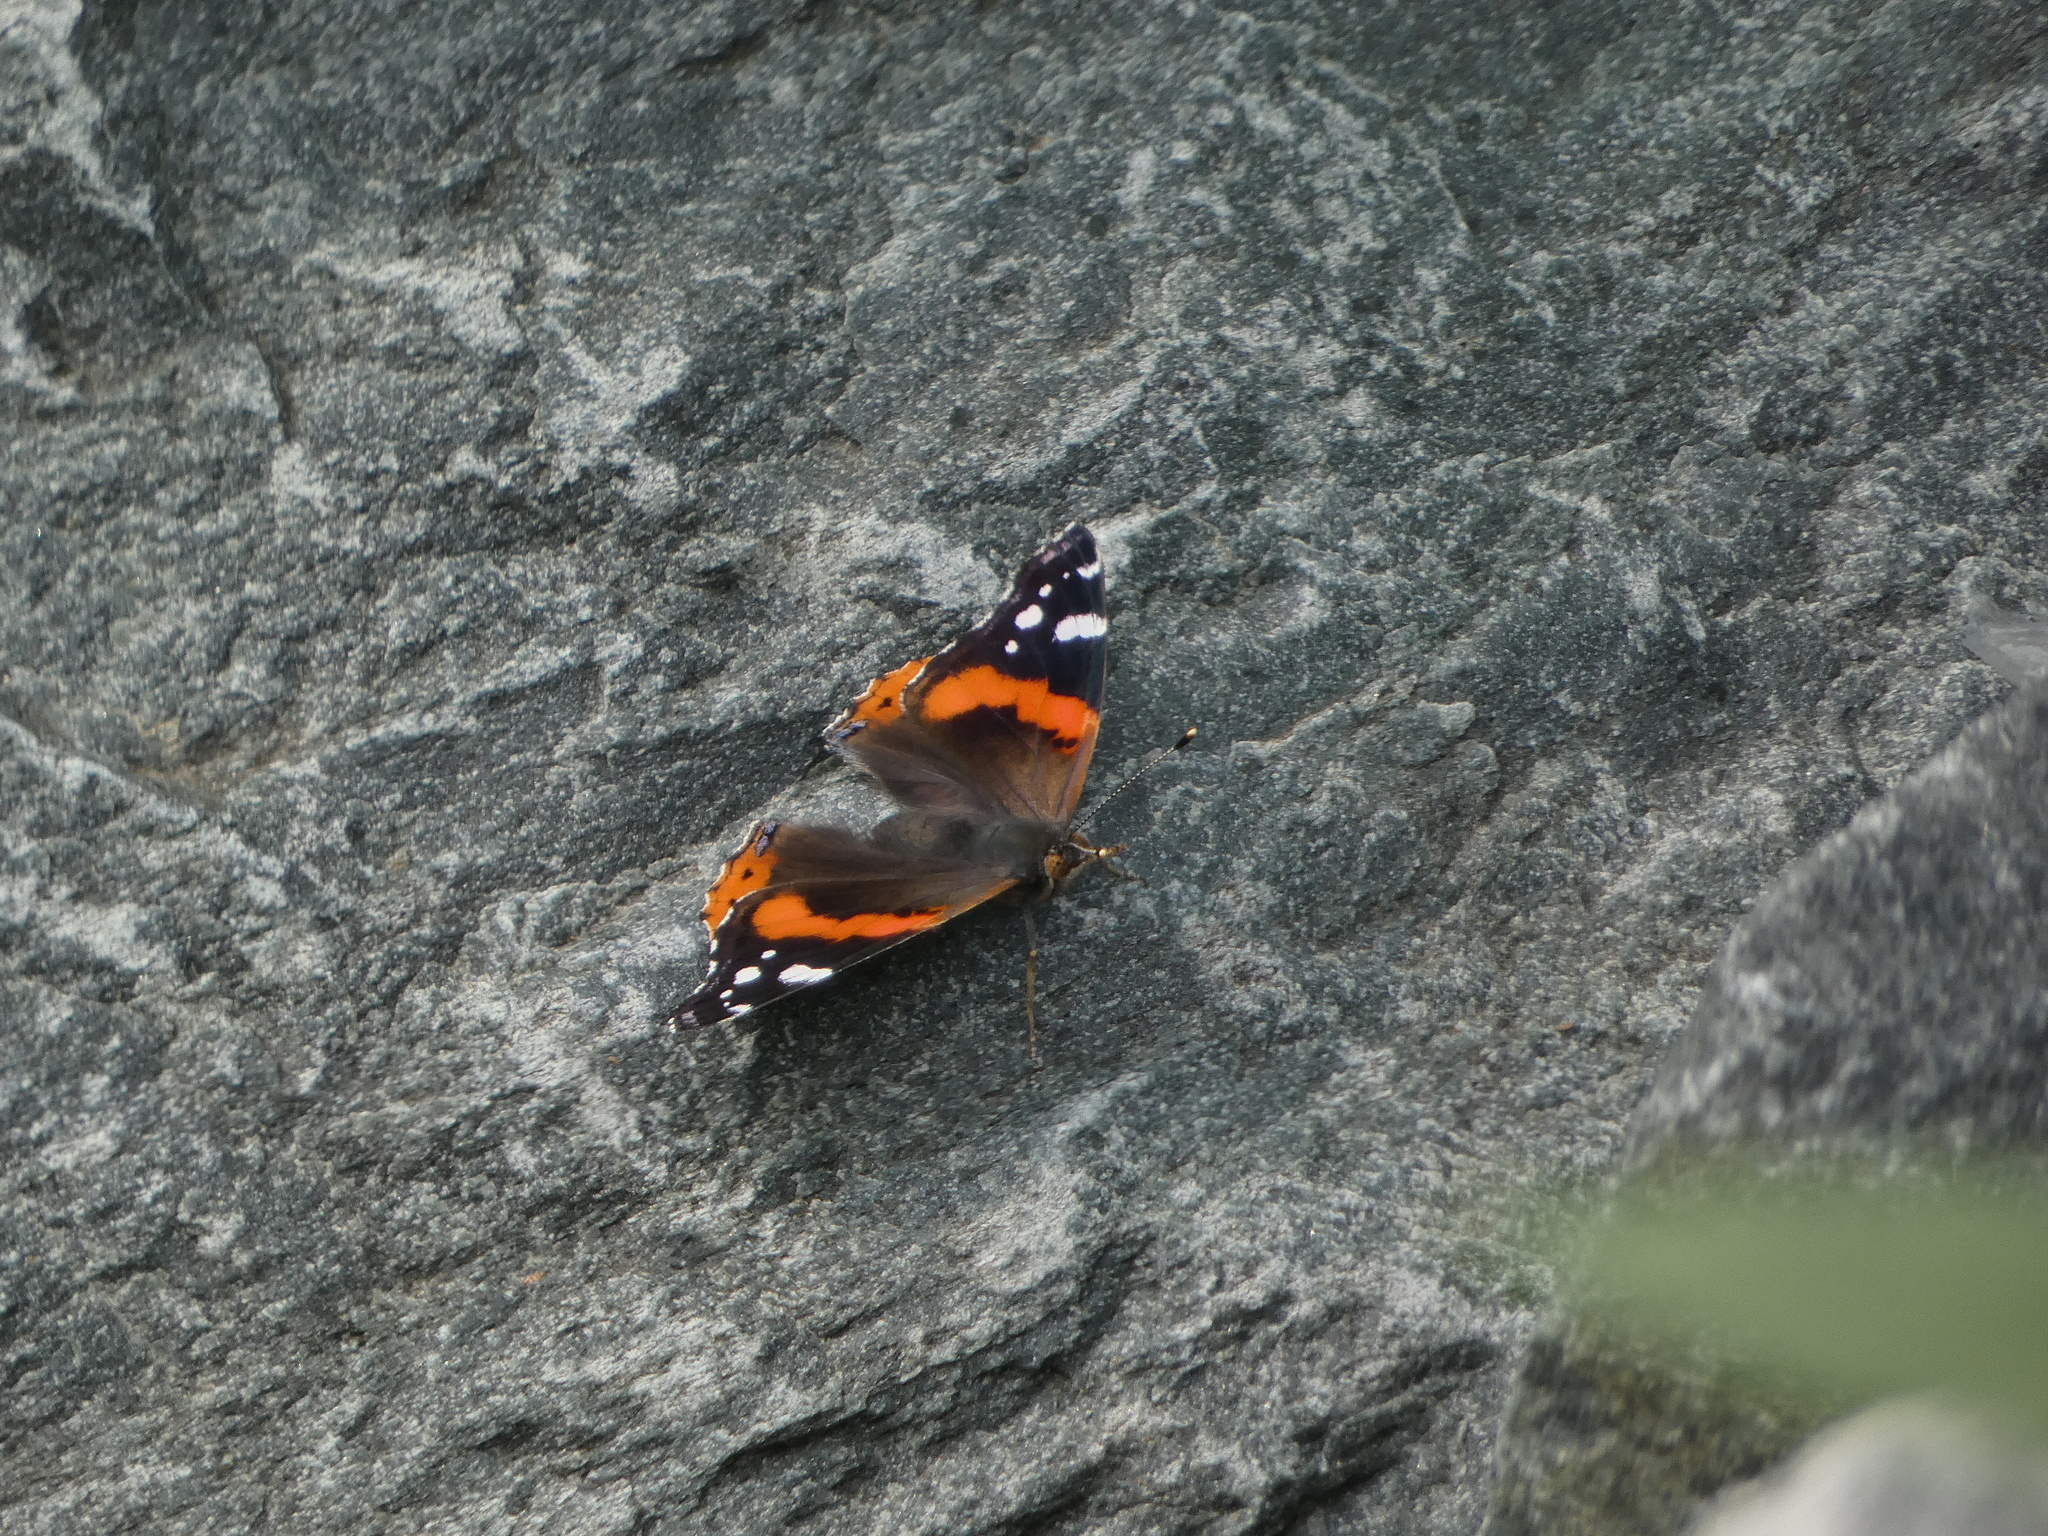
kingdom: Animalia
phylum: Arthropoda
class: Insecta
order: Lepidoptera
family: Nymphalidae
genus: Vanessa
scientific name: Vanessa atalanta
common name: Red admiral
